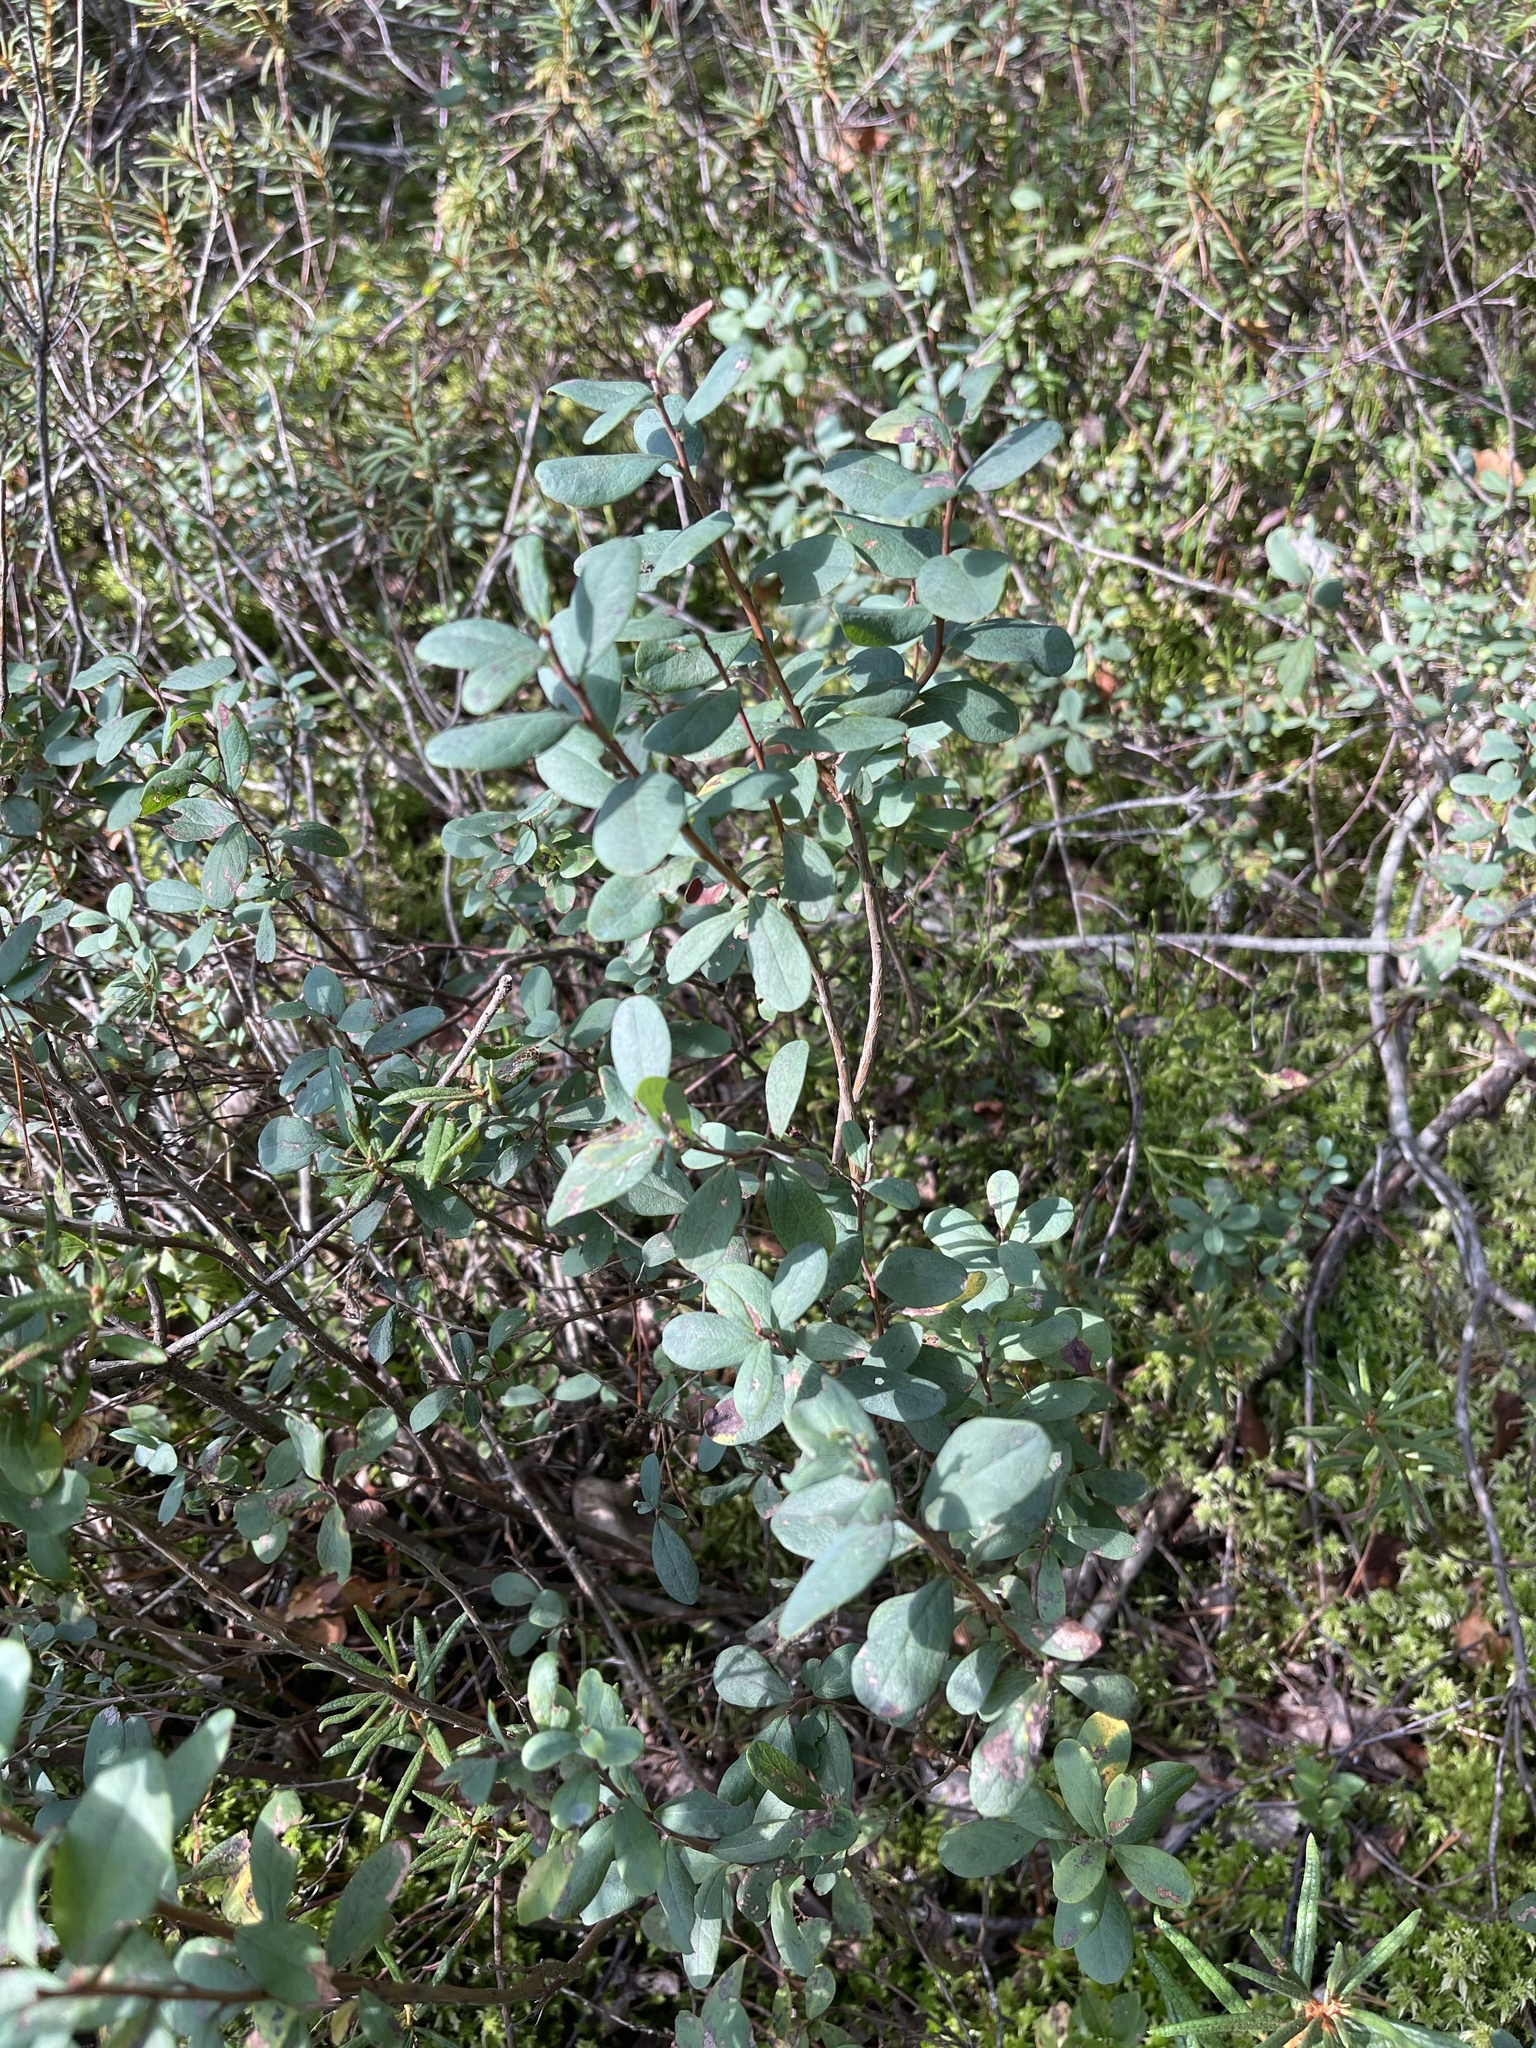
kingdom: Plantae
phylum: Tracheophyta
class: Magnoliopsida
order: Ericales
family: Ericaceae
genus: Vaccinium
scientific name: Vaccinium uliginosum
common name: Bog bilberry
